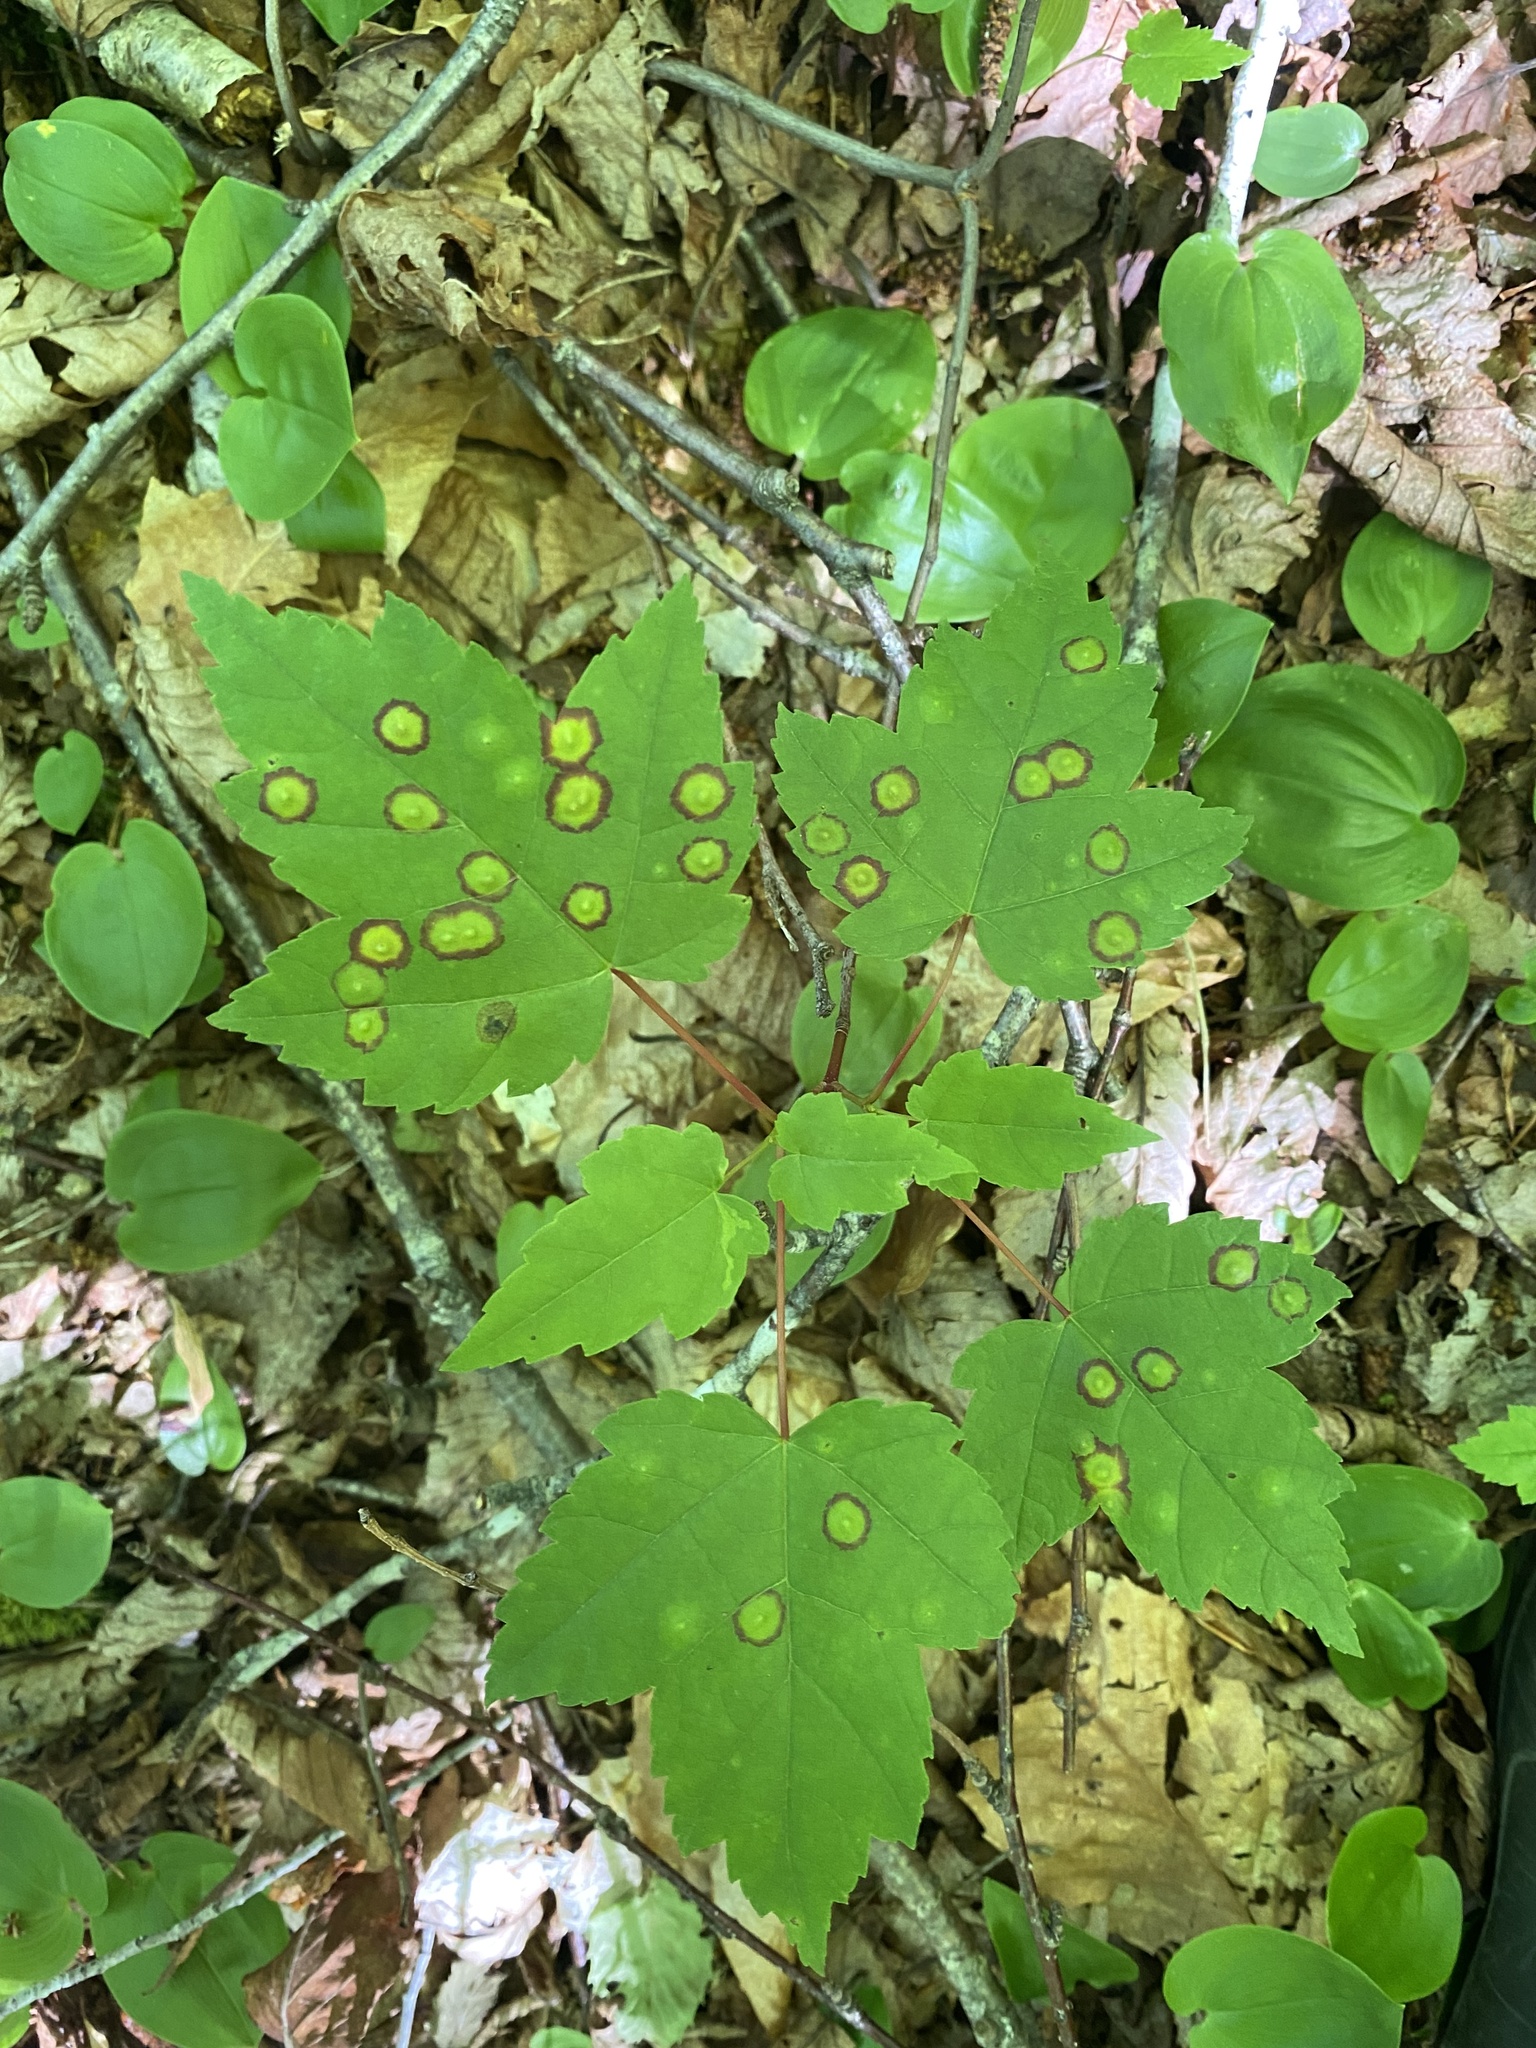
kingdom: Plantae
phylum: Tracheophyta
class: Magnoliopsida
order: Sapindales
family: Sapindaceae
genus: Acer
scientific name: Acer rubrum
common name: Red maple
